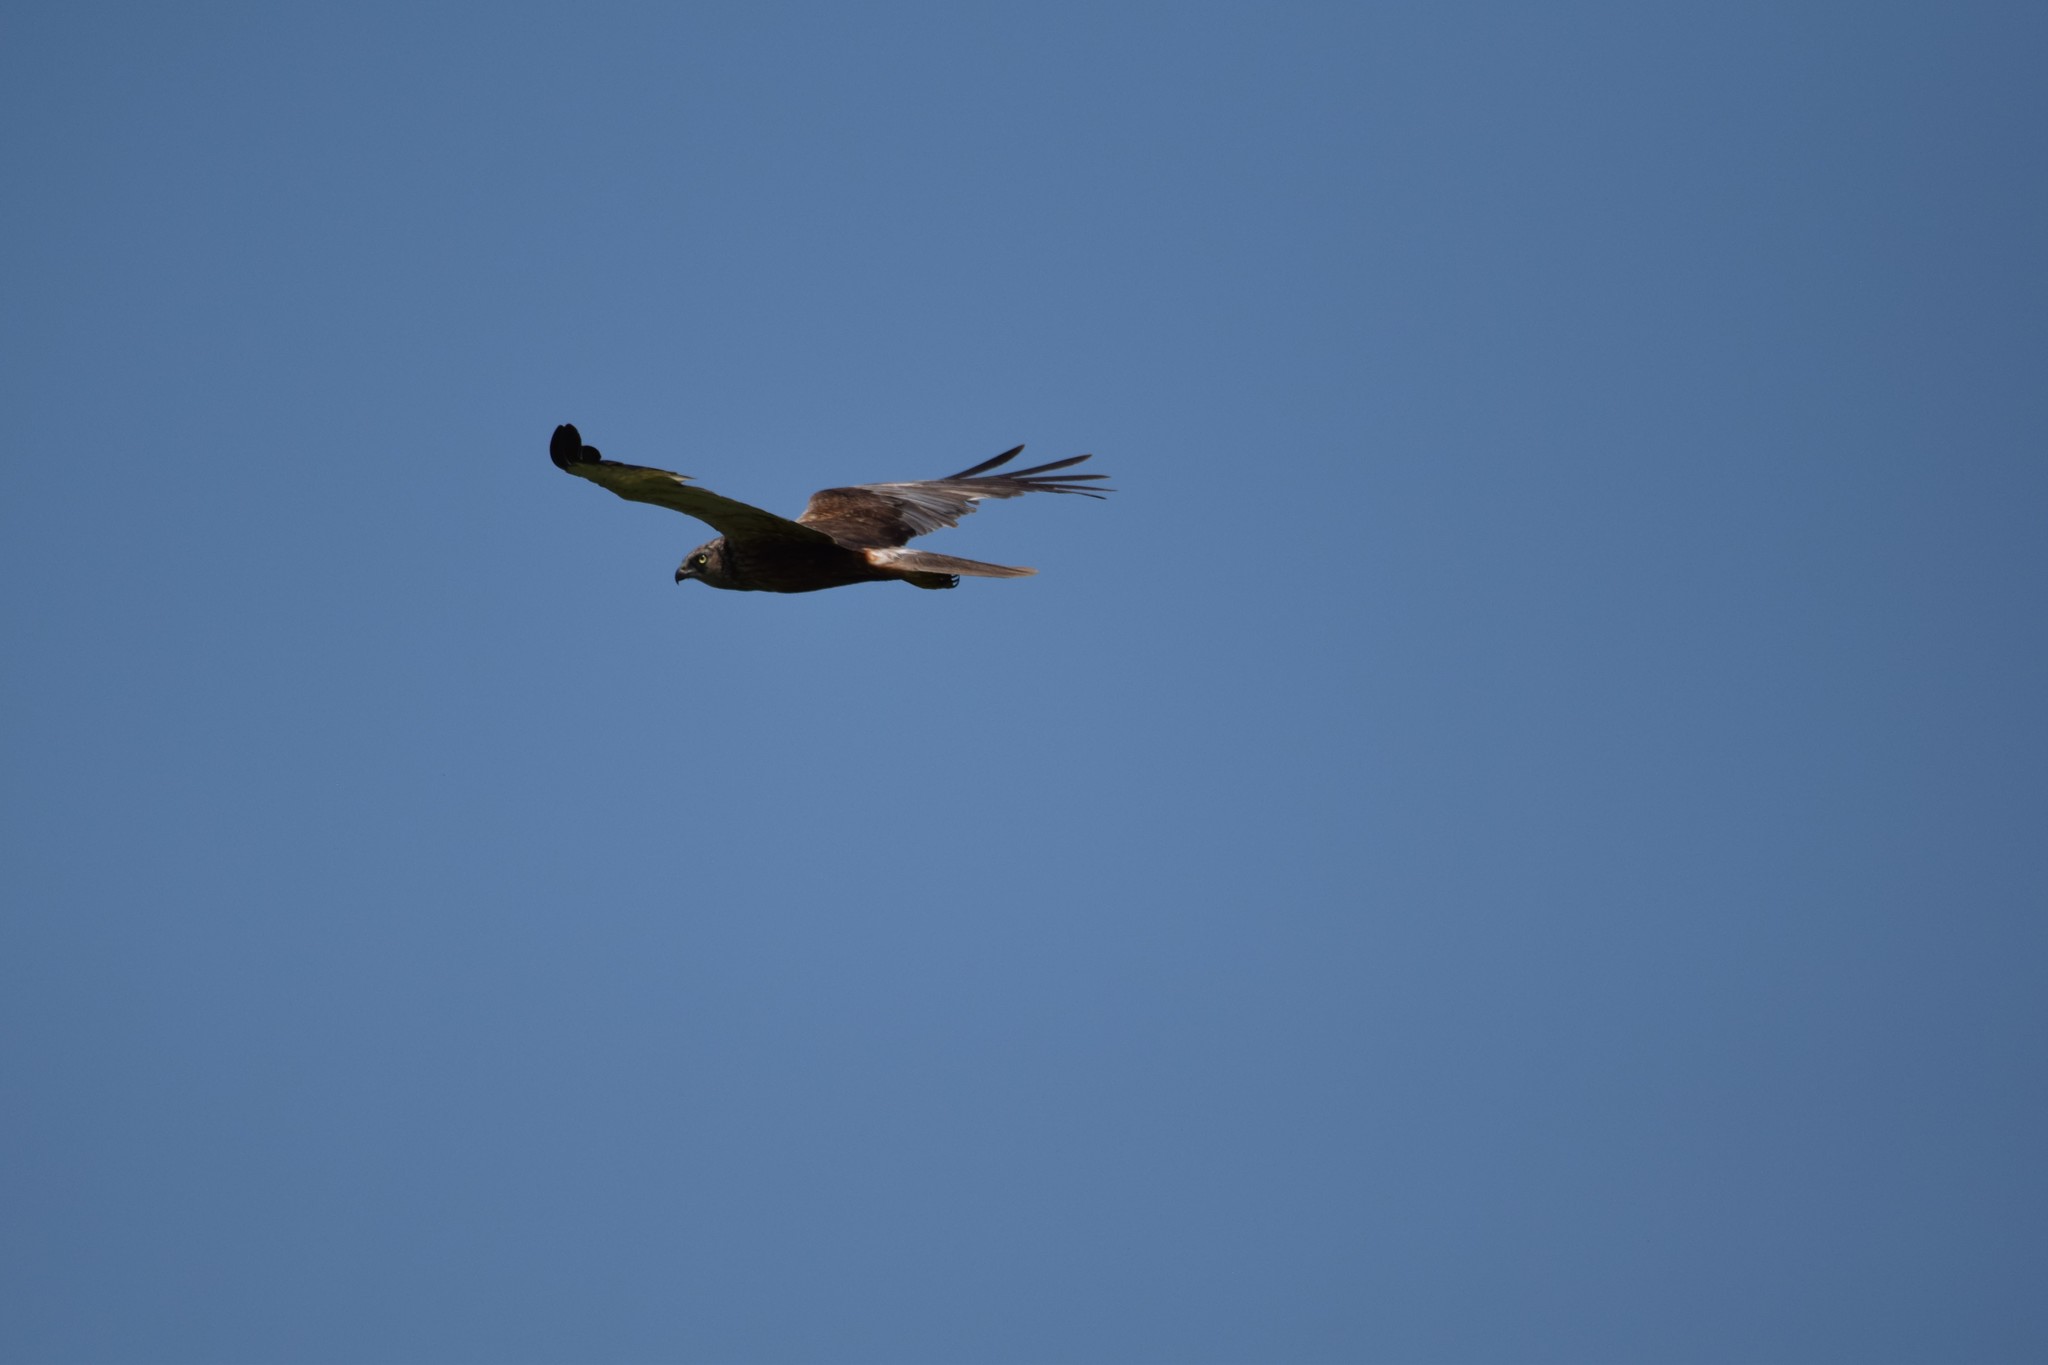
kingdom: Animalia
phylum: Chordata
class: Aves
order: Accipitriformes
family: Accipitridae
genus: Circus
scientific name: Circus aeruginosus
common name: Western marsh harrier
